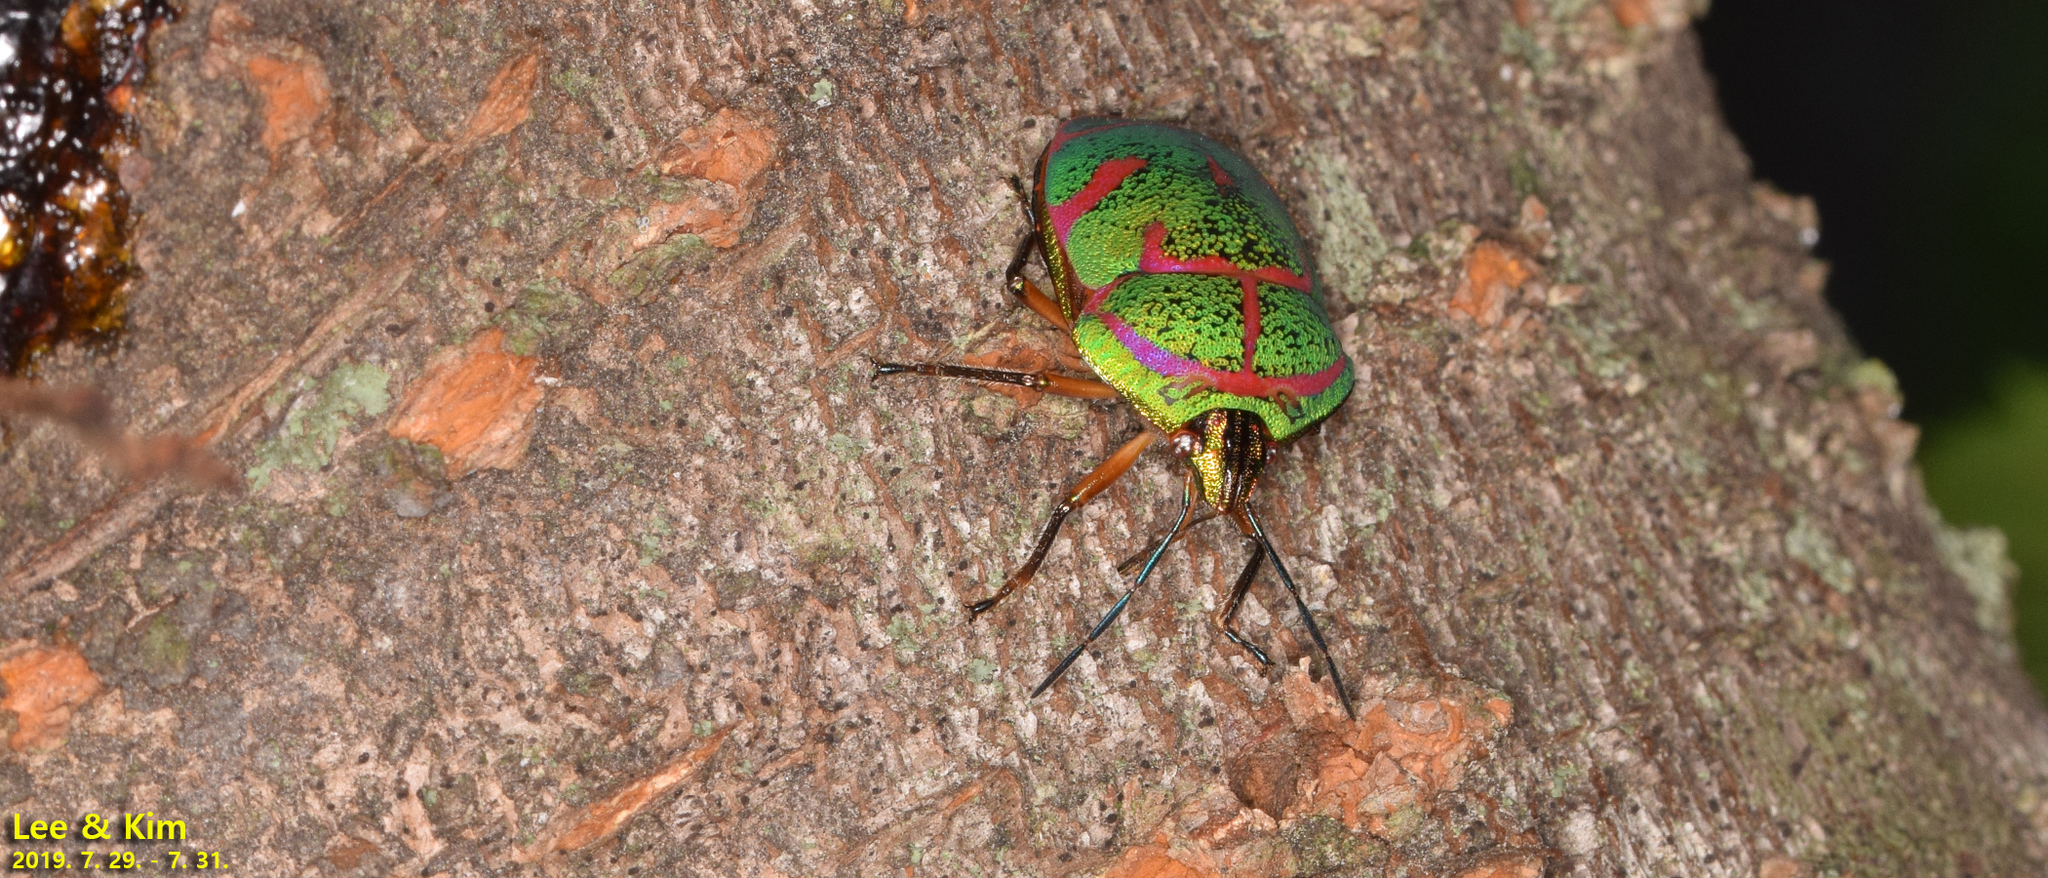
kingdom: Animalia
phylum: Arthropoda
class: Insecta
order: Hemiptera
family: Scutelleridae
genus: Poecilocoris
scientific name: Poecilocoris lewisi
